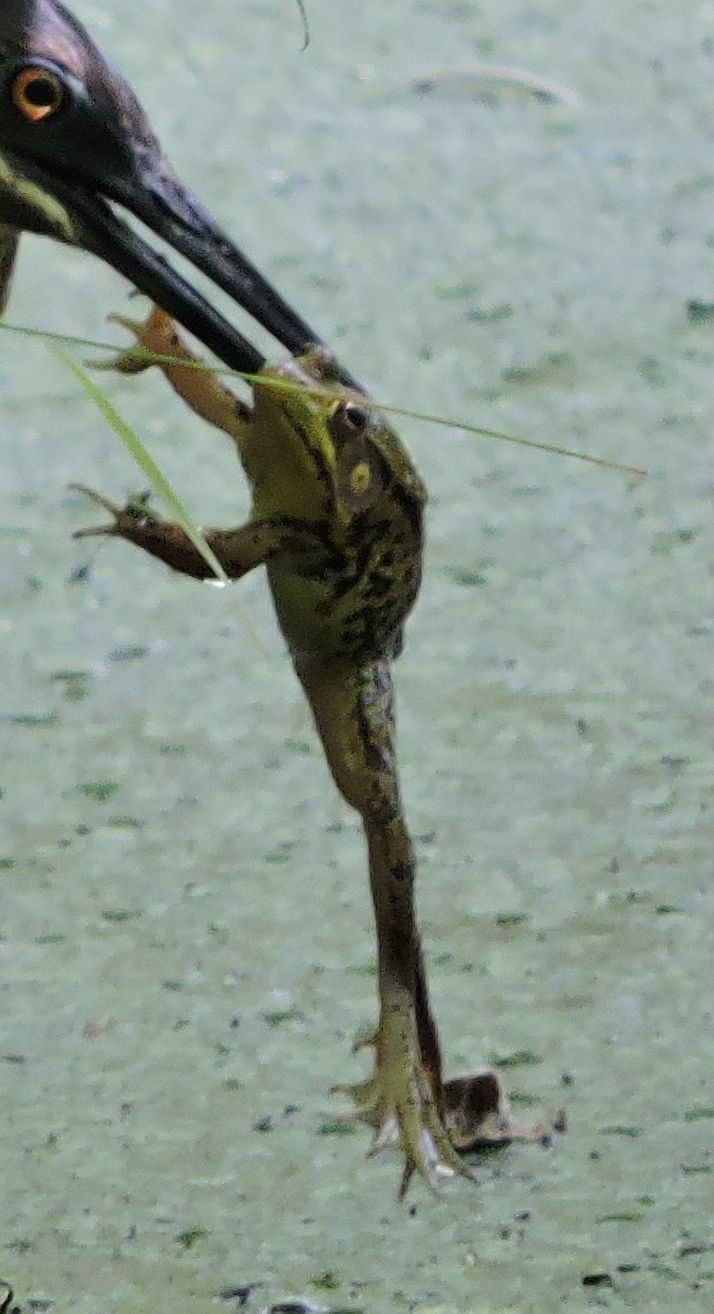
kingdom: Animalia
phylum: Chordata
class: Amphibia
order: Anura
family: Ranidae
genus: Lithobates
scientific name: Lithobates clamitans
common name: Green frog
